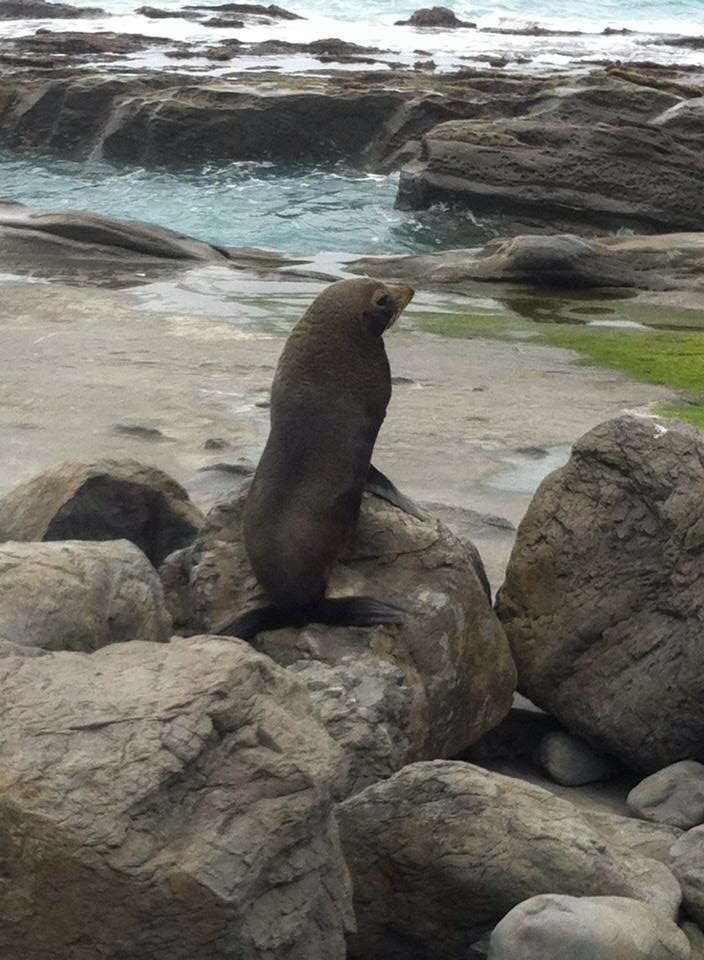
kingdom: Animalia
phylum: Chordata
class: Mammalia
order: Carnivora
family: Otariidae
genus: Arctocephalus
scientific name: Arctocephalus forsteri
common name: New zealand fur seal
